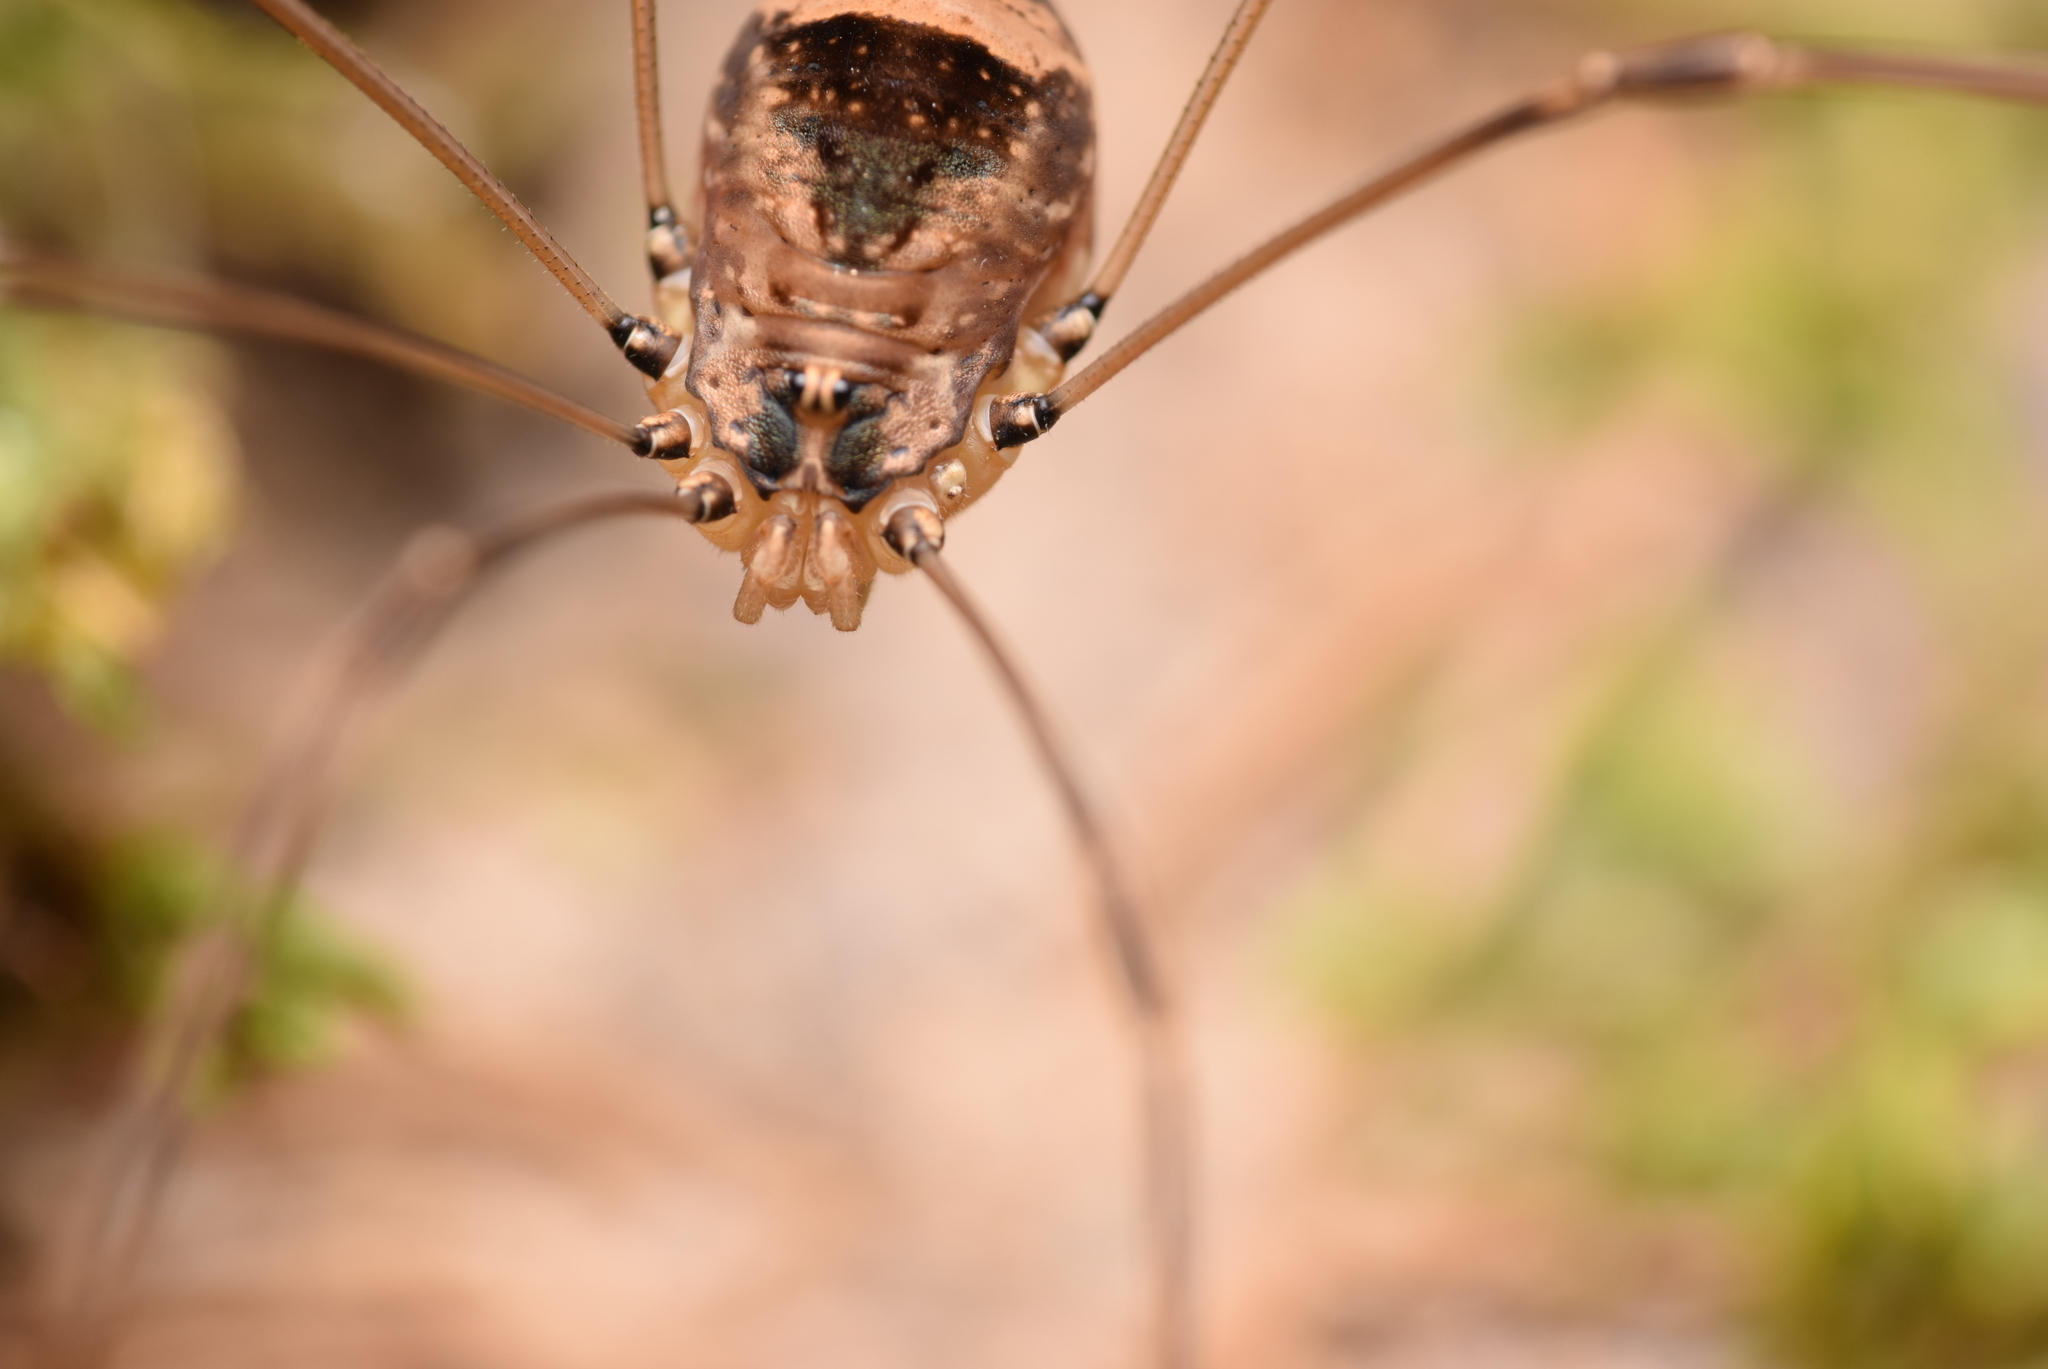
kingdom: Animalia
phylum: Arthropoda
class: Arachnida
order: Opiliones
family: Sclerosomatidae
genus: Leiobunum
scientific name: Leiobunum blackwalli
